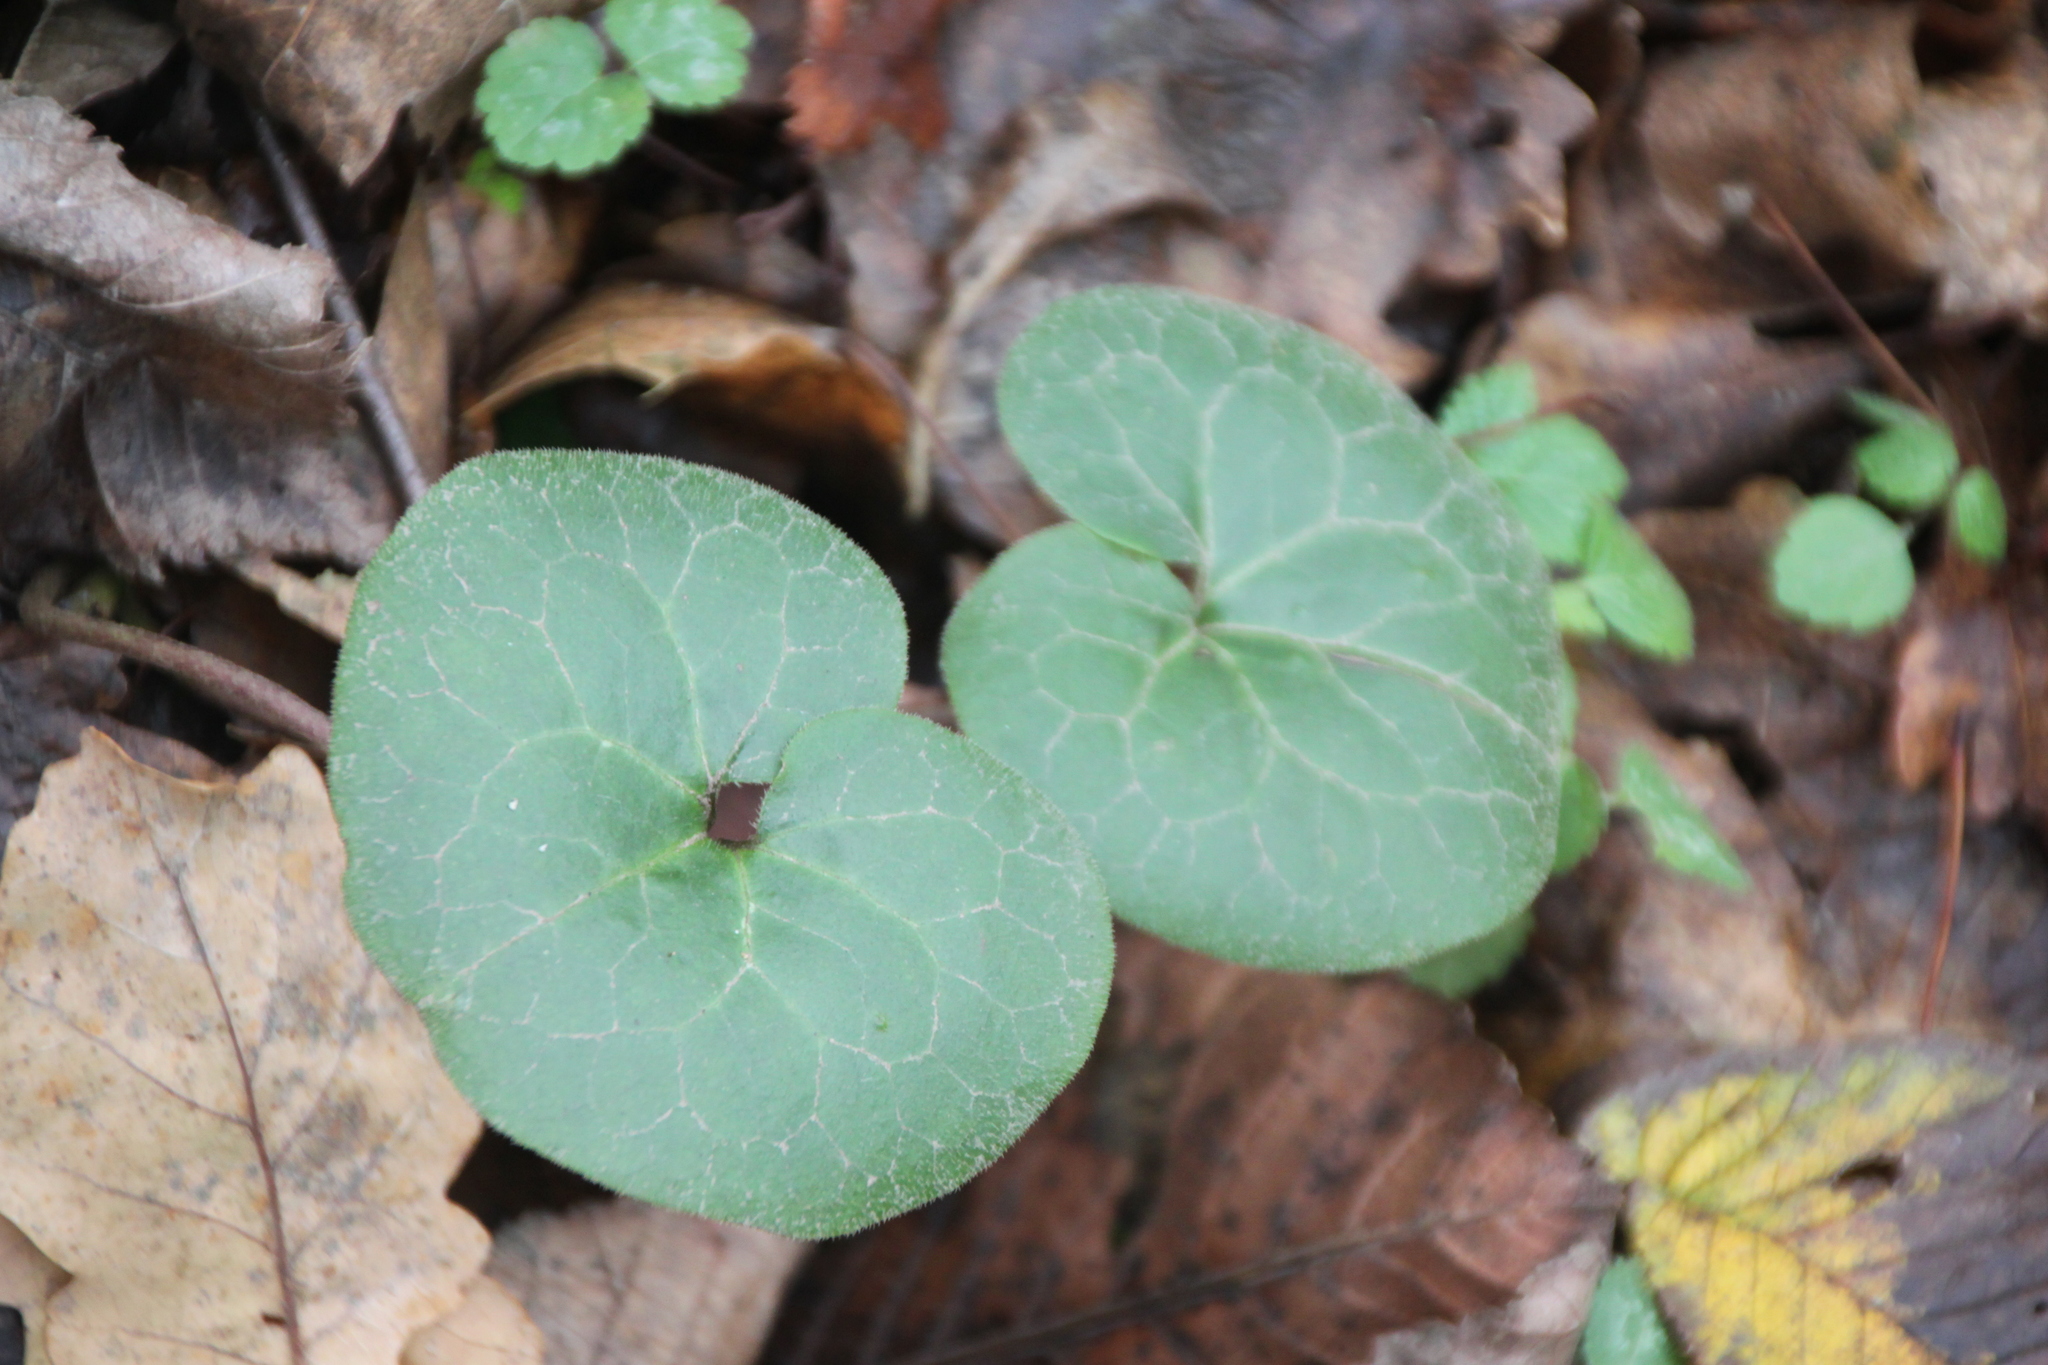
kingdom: Plantae
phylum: Tracheophyta
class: Magnoliopsida
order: Piperales
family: Aristolochiaceae
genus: Asarum
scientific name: Asarum europaeum
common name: Asarabacca
